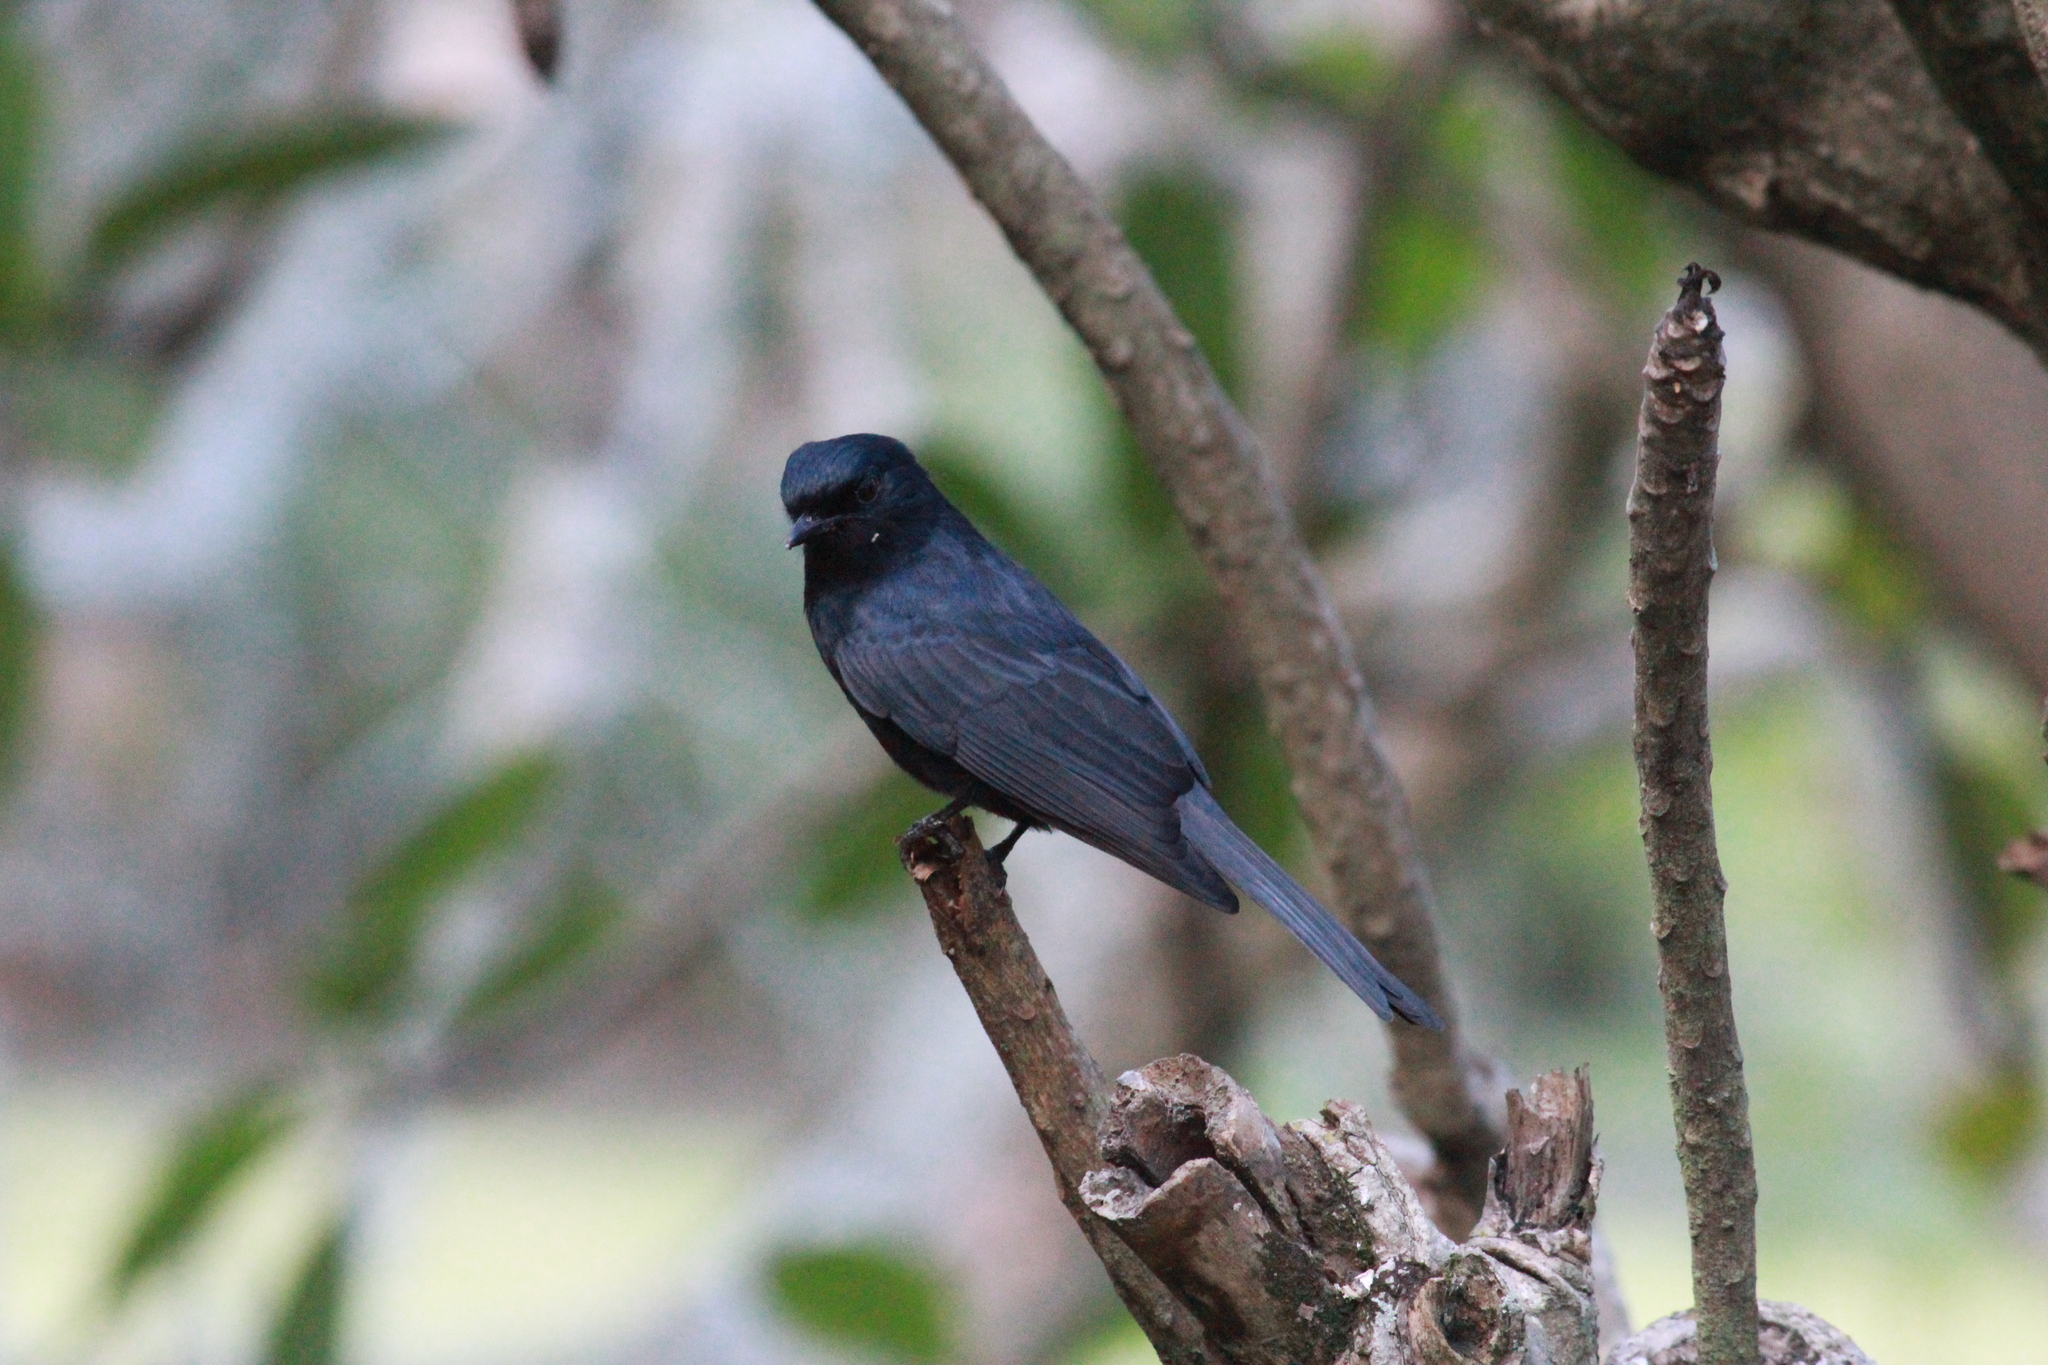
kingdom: Animalia
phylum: Chordata
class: Aves
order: Passeriformes
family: Muscicapidae
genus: Melaenornis
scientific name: Melaenornis pammelaina
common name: Southern black flycatcher
